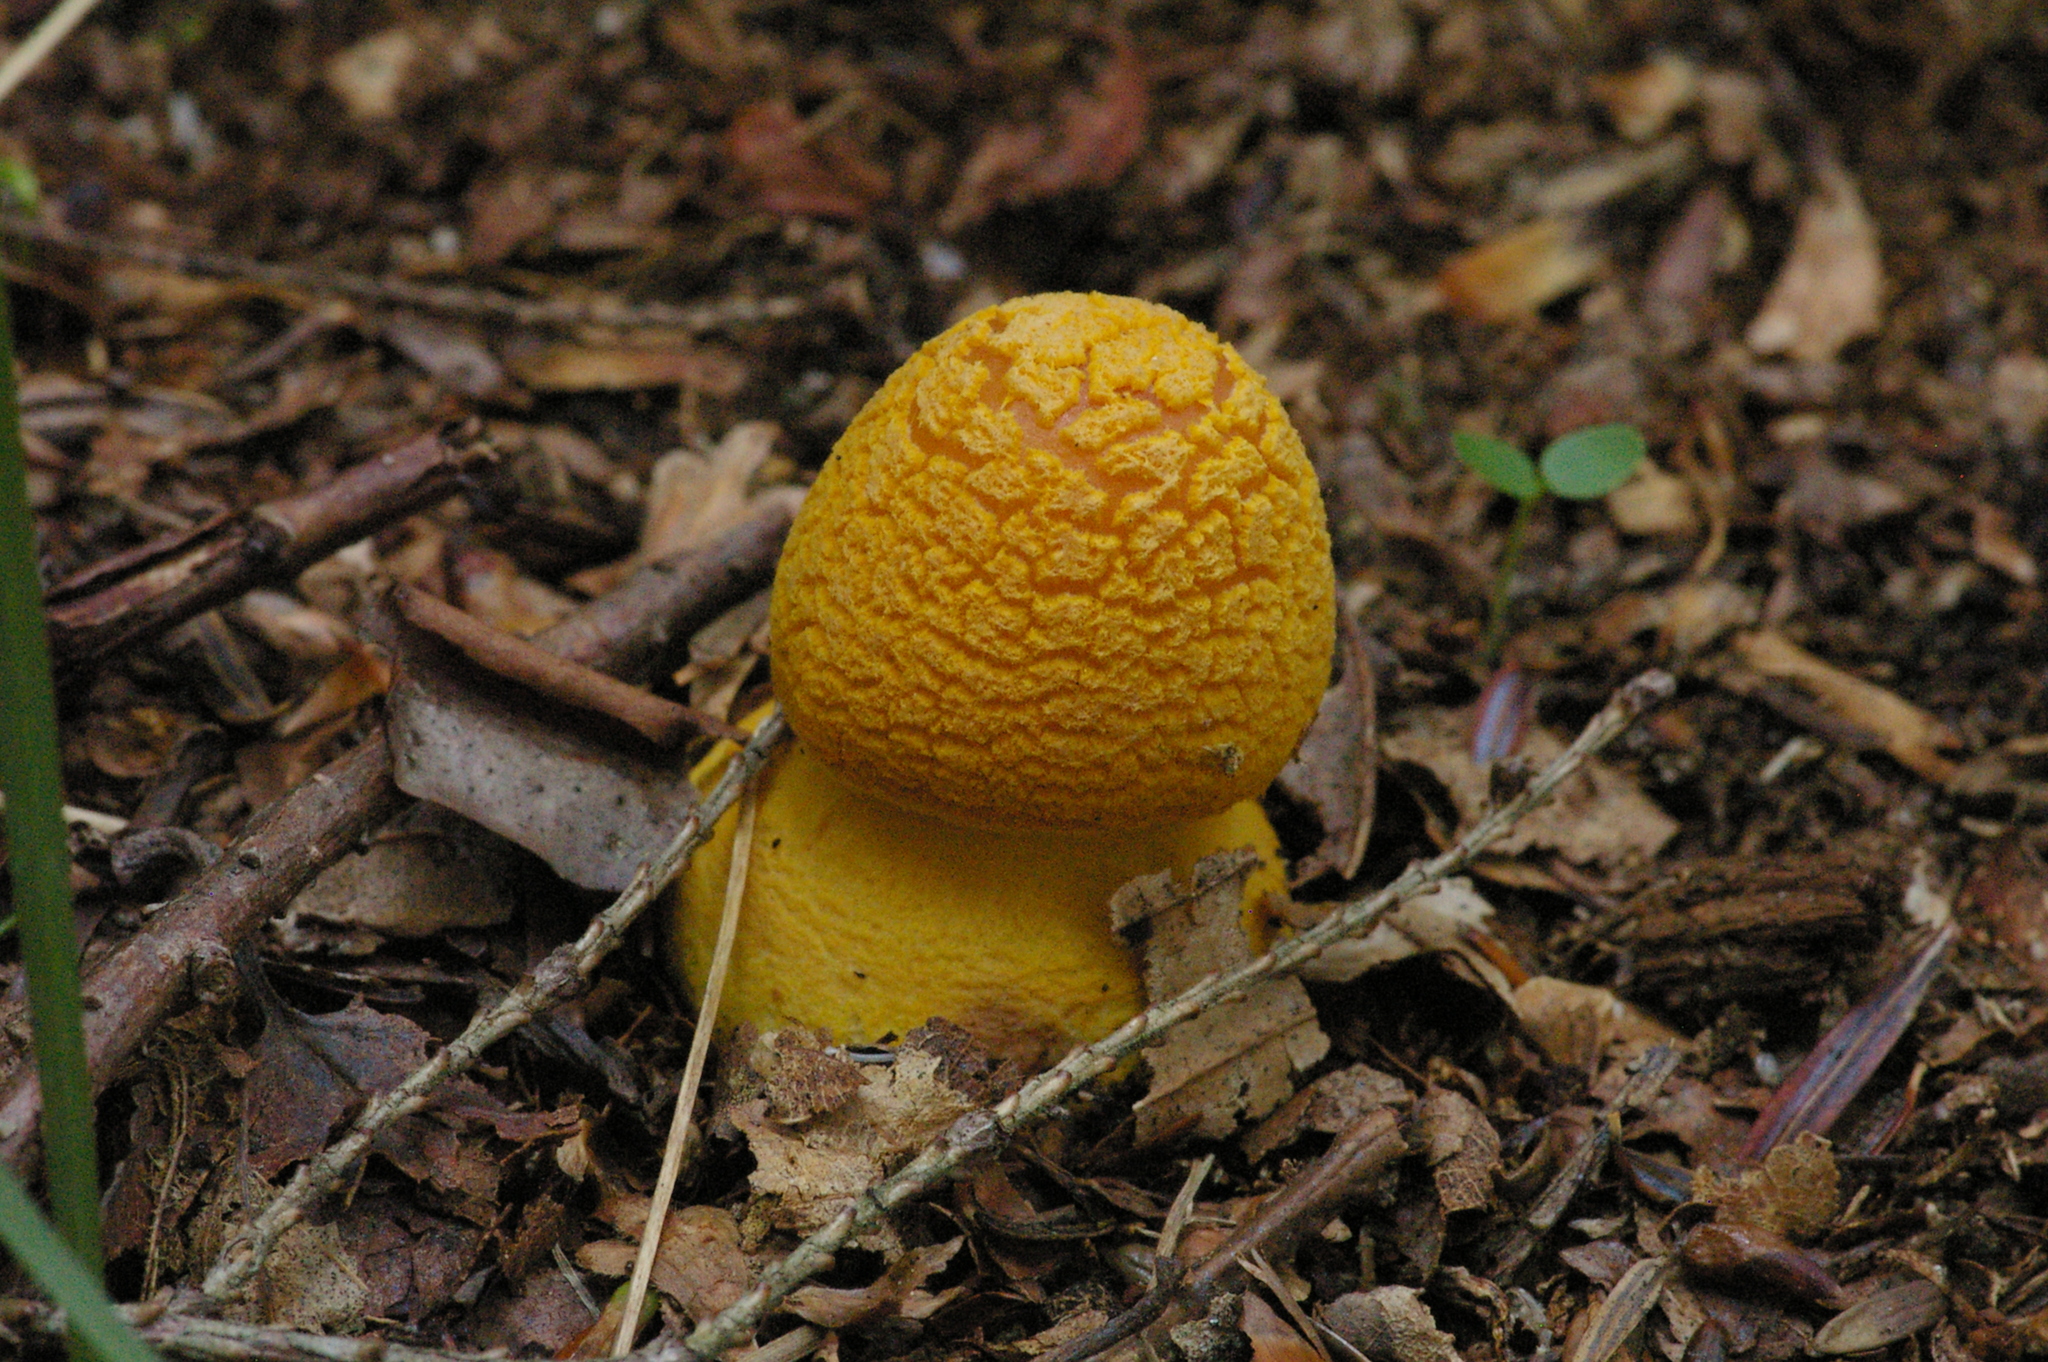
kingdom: Fungi
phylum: Basidiomycota
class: Agaricomycetes
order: Agaricales
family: Amanitaceae
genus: Amanita
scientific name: Amanita flavoconia
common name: Yellow patches
